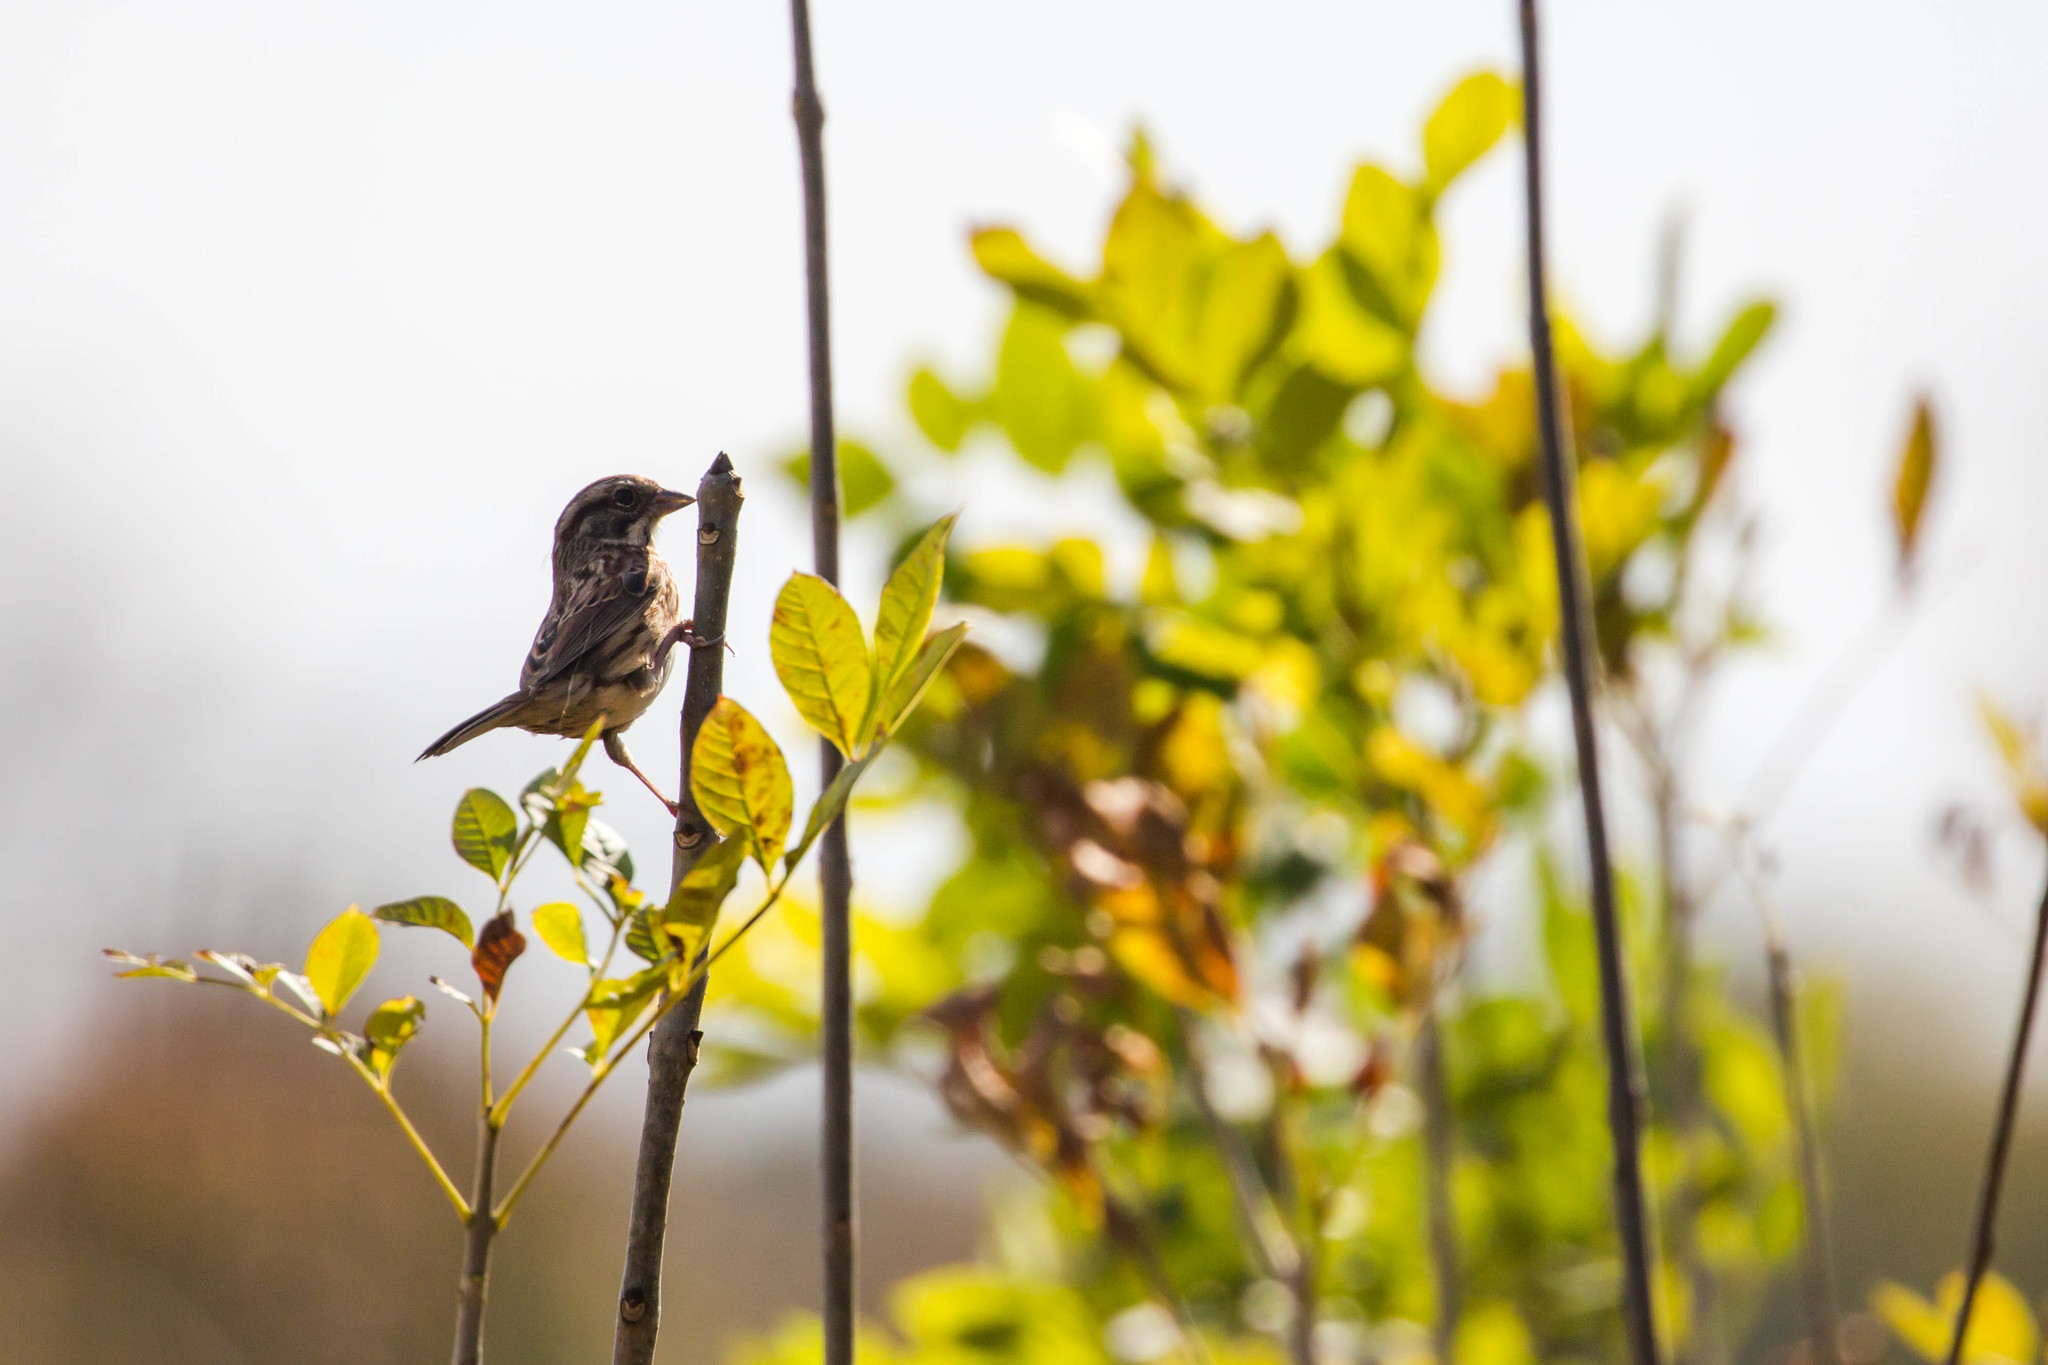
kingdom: Animalia
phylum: Chordata
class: Aves
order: Passeriformes
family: Passerellidae
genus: Melospiza
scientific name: Melospiza melodia
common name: Song sparrow
